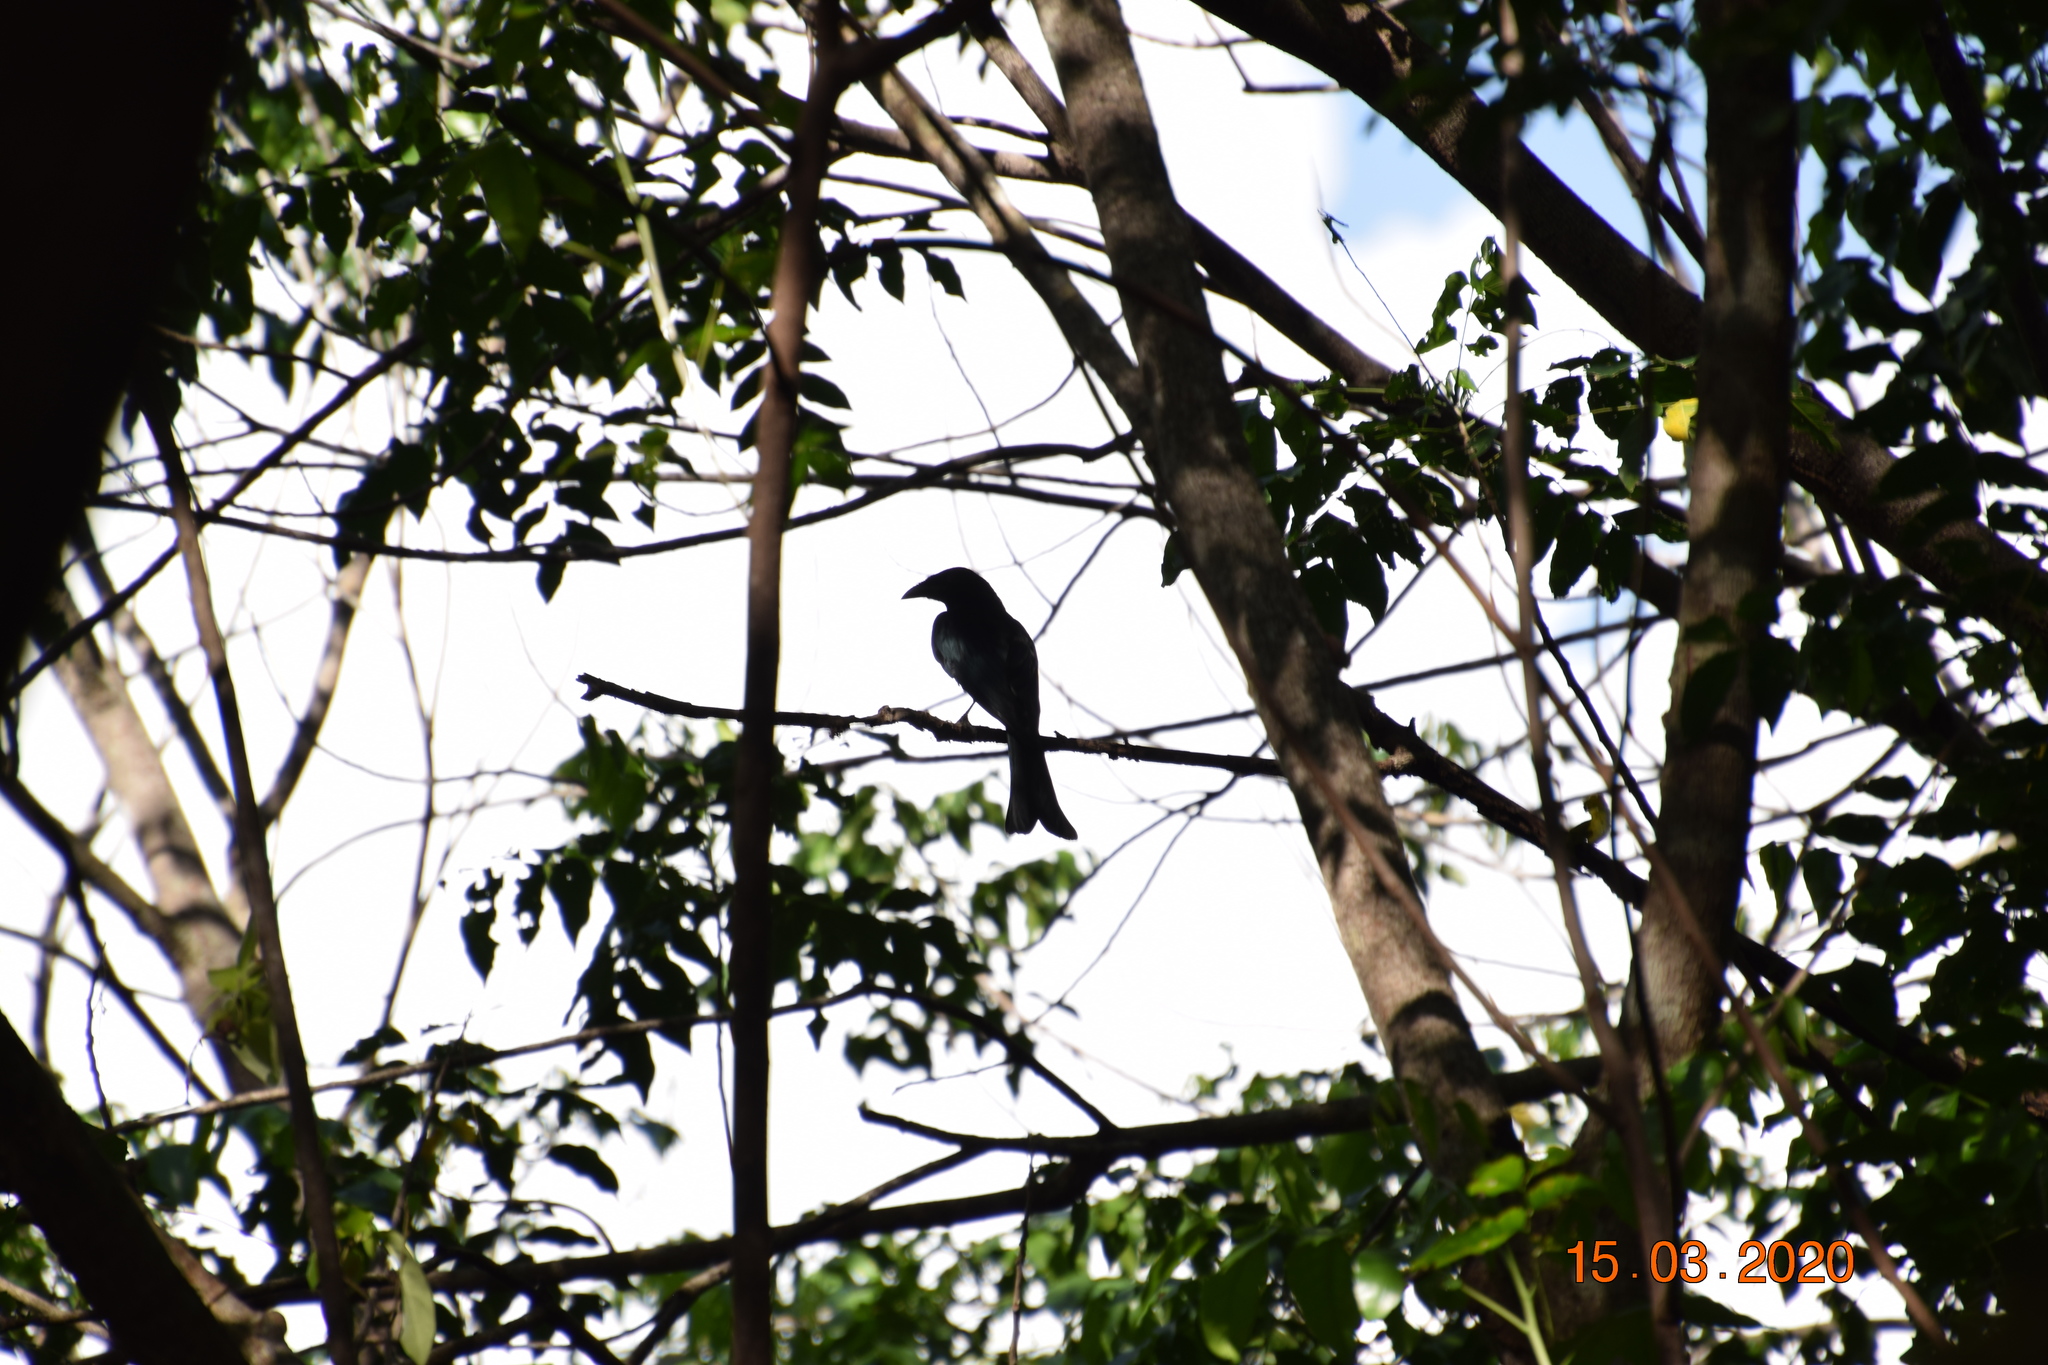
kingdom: Animalia
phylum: Chordata
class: Aves
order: Passeriformes
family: Dicruridae
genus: Dicrurus
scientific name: Dicrurus bracteatus
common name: Spangled drongo
